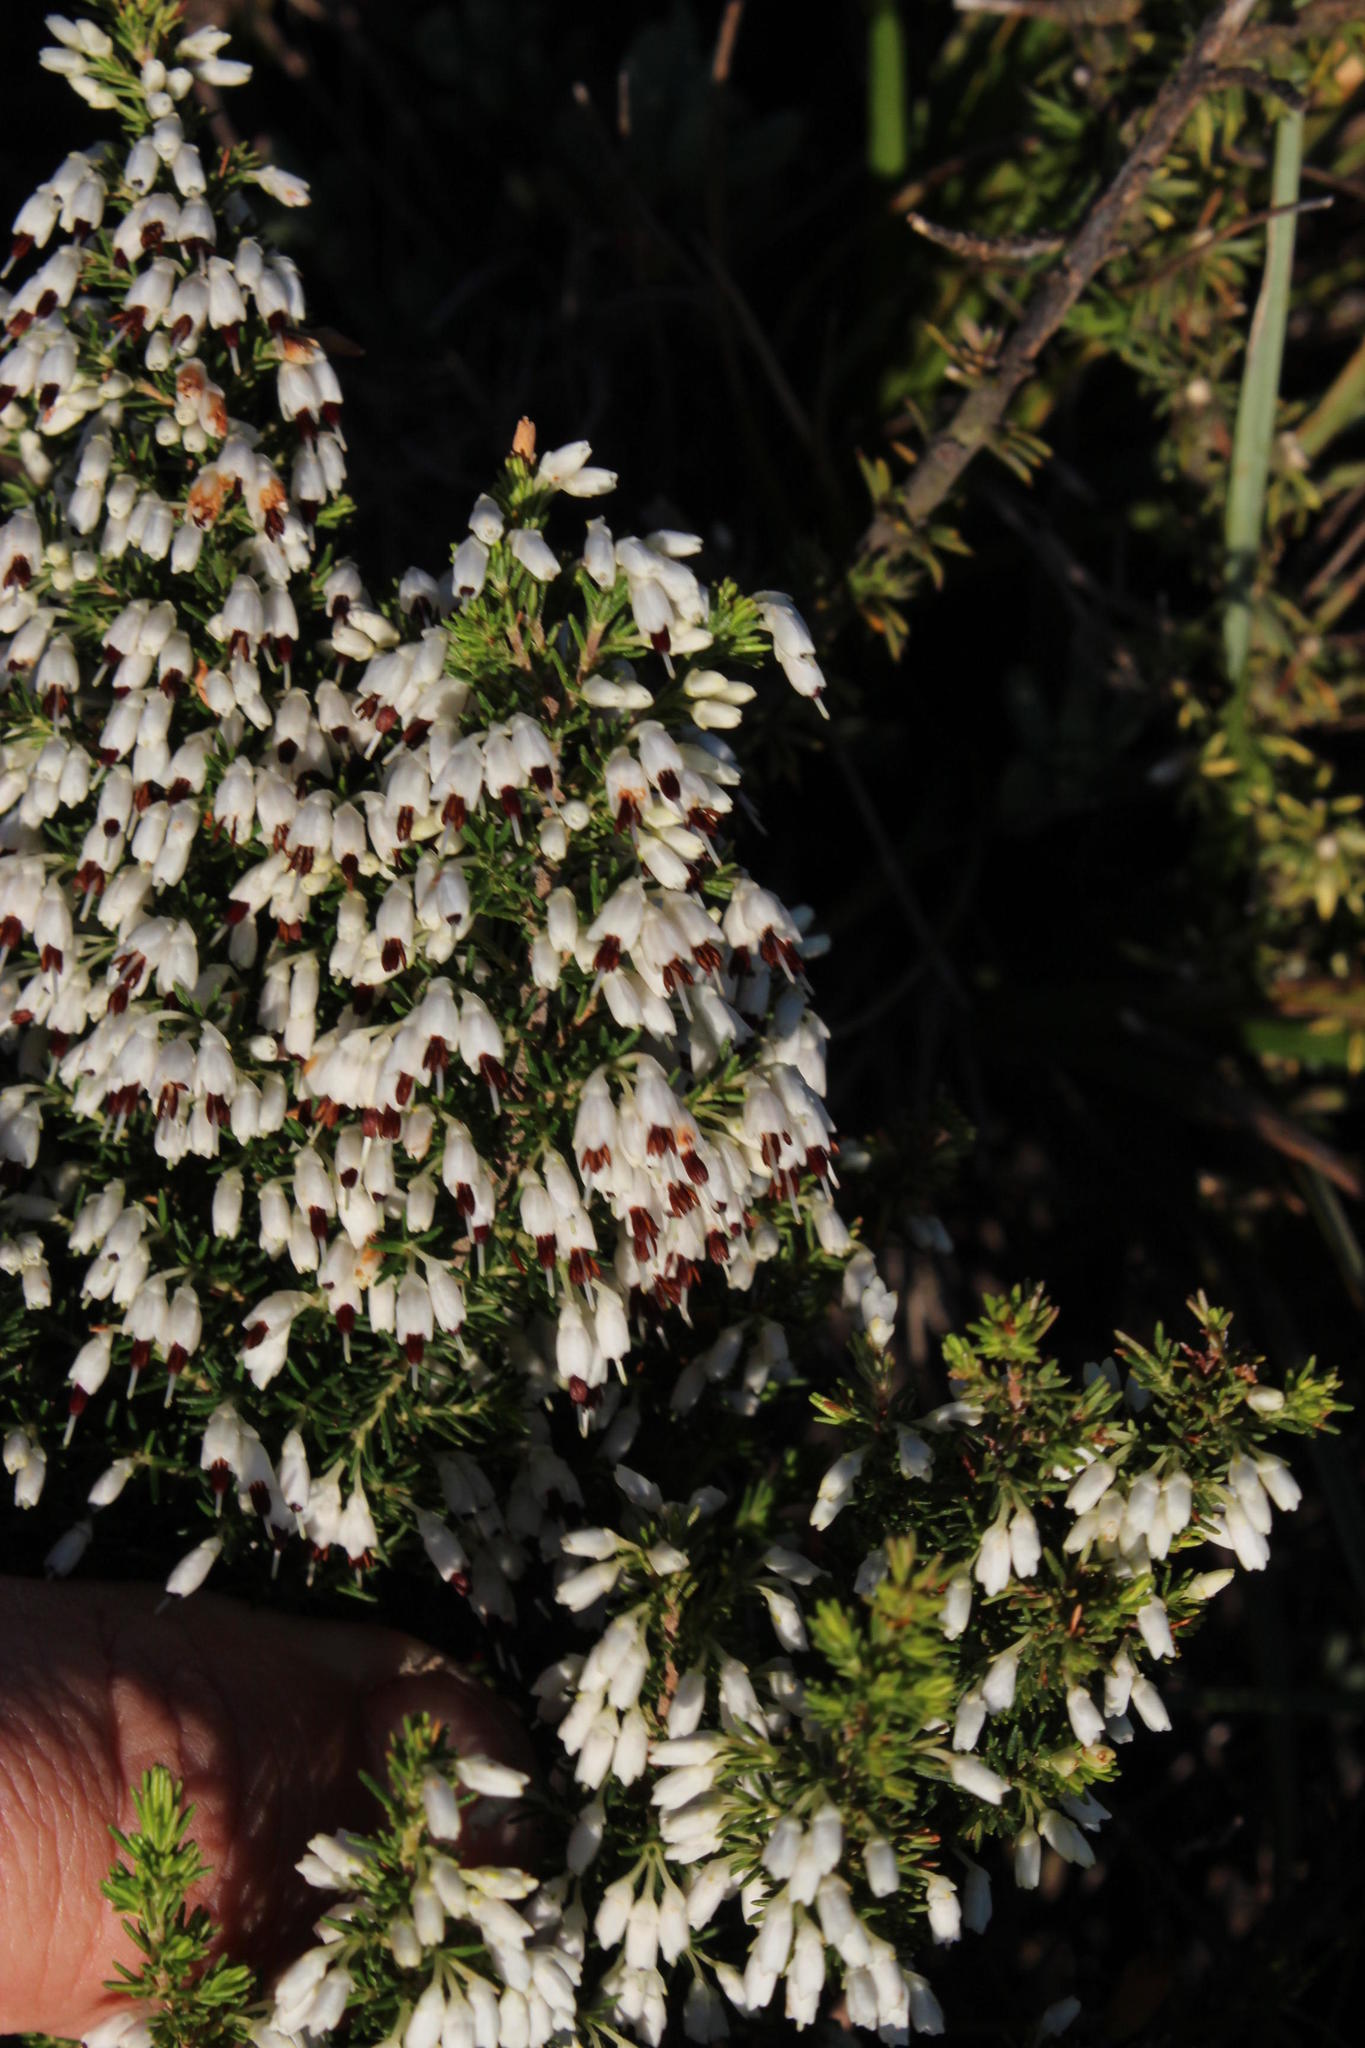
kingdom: Plantae
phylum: Tracheophyta
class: Magnoliopsida
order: Ericales
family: Ericaceae
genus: Erica
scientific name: Erica imbricata
